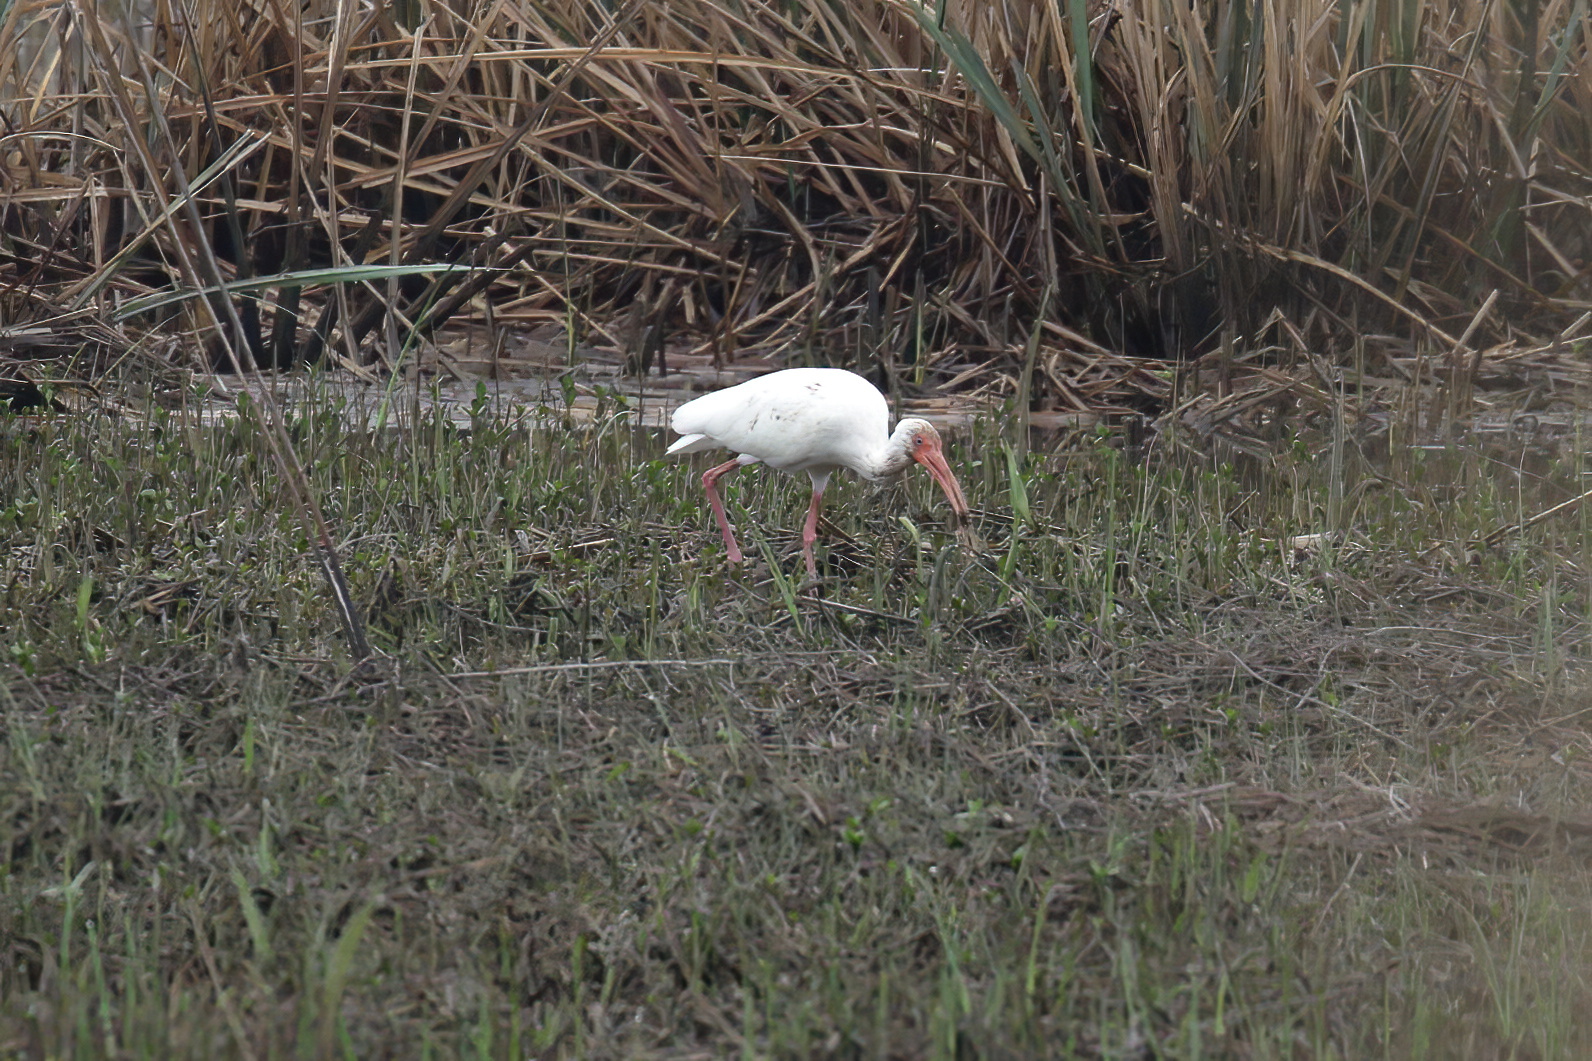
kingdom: Animalia
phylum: Chordata
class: Aves
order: Pelecaniformes
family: Threskiornithidae
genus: Eudocimus
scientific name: Eudocimus albus
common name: White ibis
